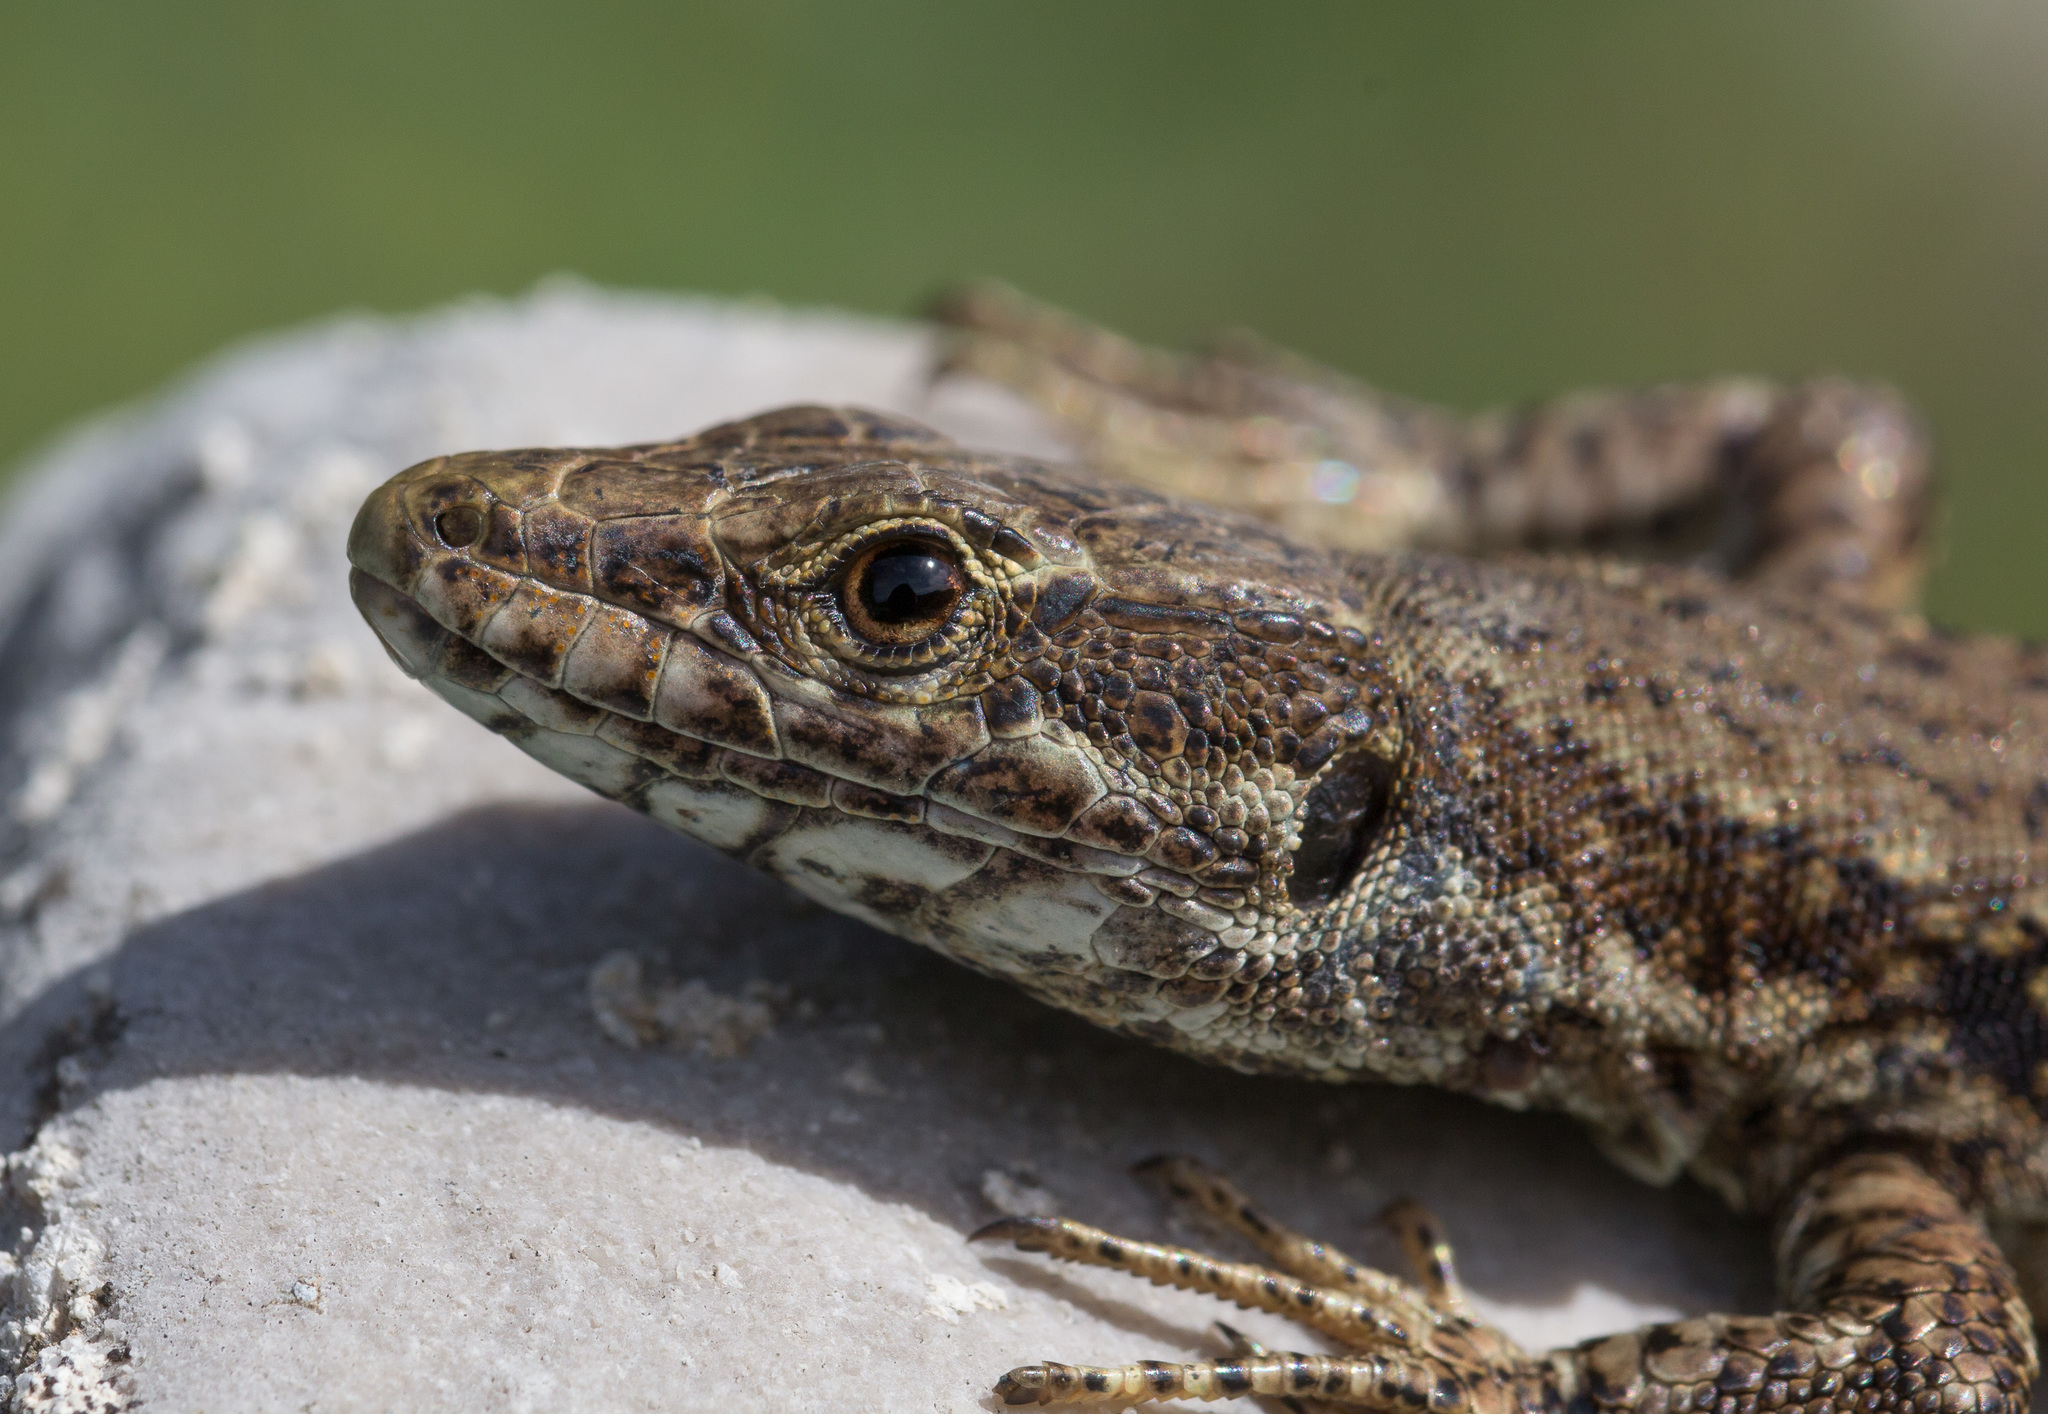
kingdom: Animalia
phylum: Chordata
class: Squamata
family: Lacertidae
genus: Podarcis
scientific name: Podarcis muralis
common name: Common wall lizard
